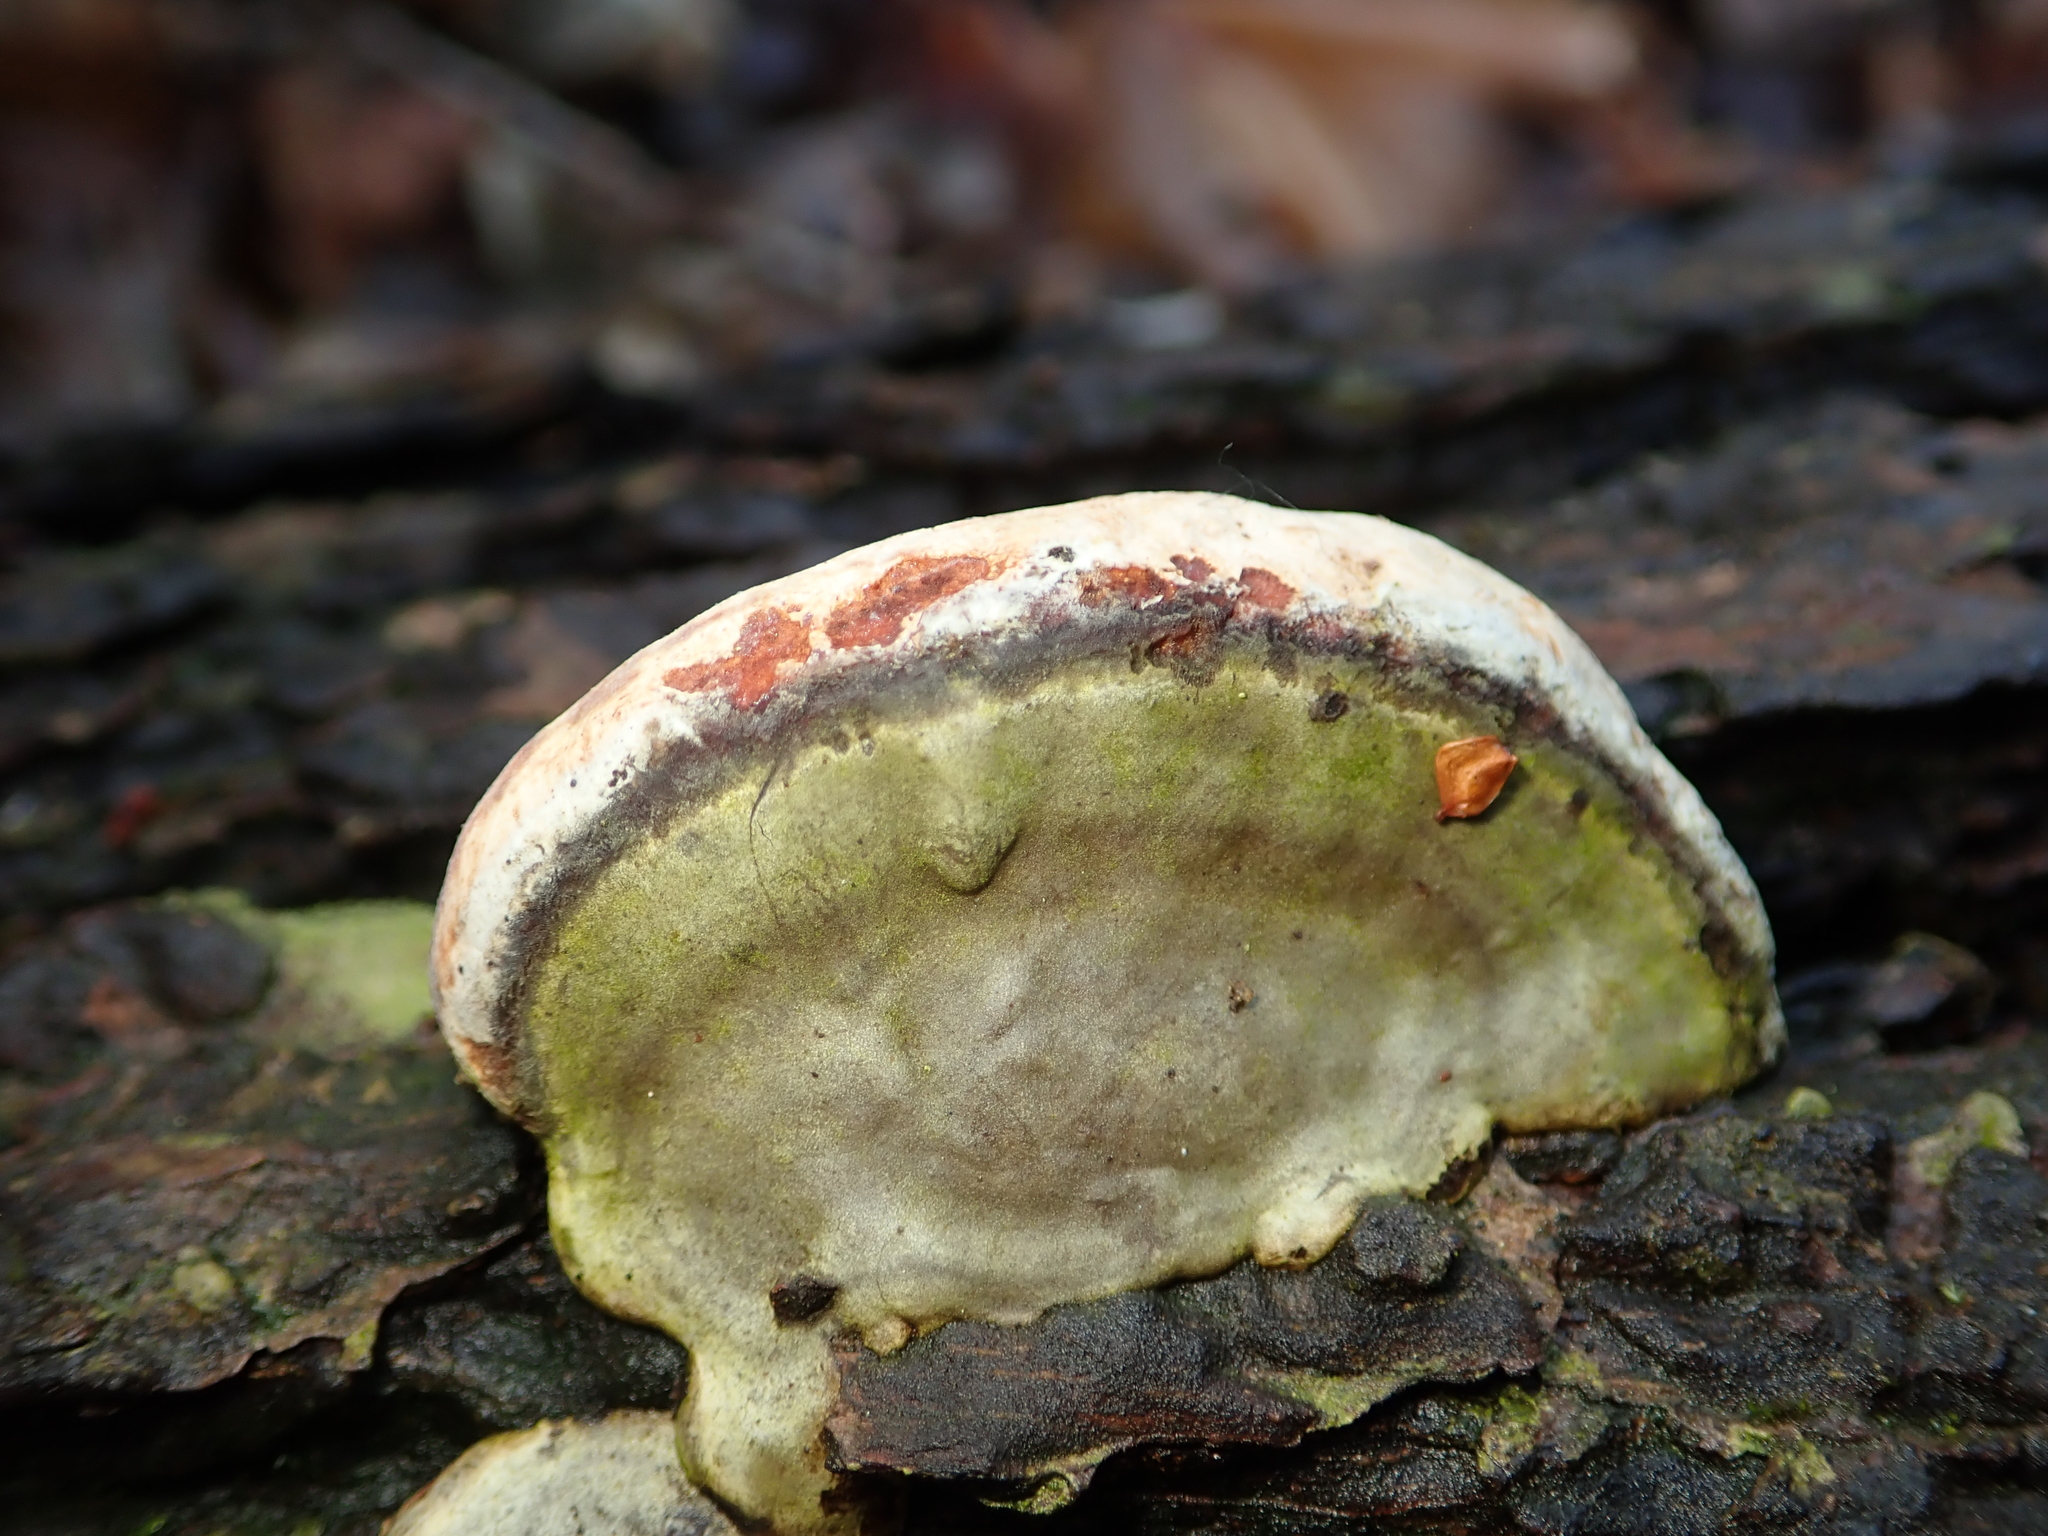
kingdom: Fungi
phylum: Basidiomycota
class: Agaricomycetes
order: Polyporales
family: Fomitopsidaceae
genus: Fomitopsis
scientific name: Fomitopsis pinicola
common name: Red-belted bracket
